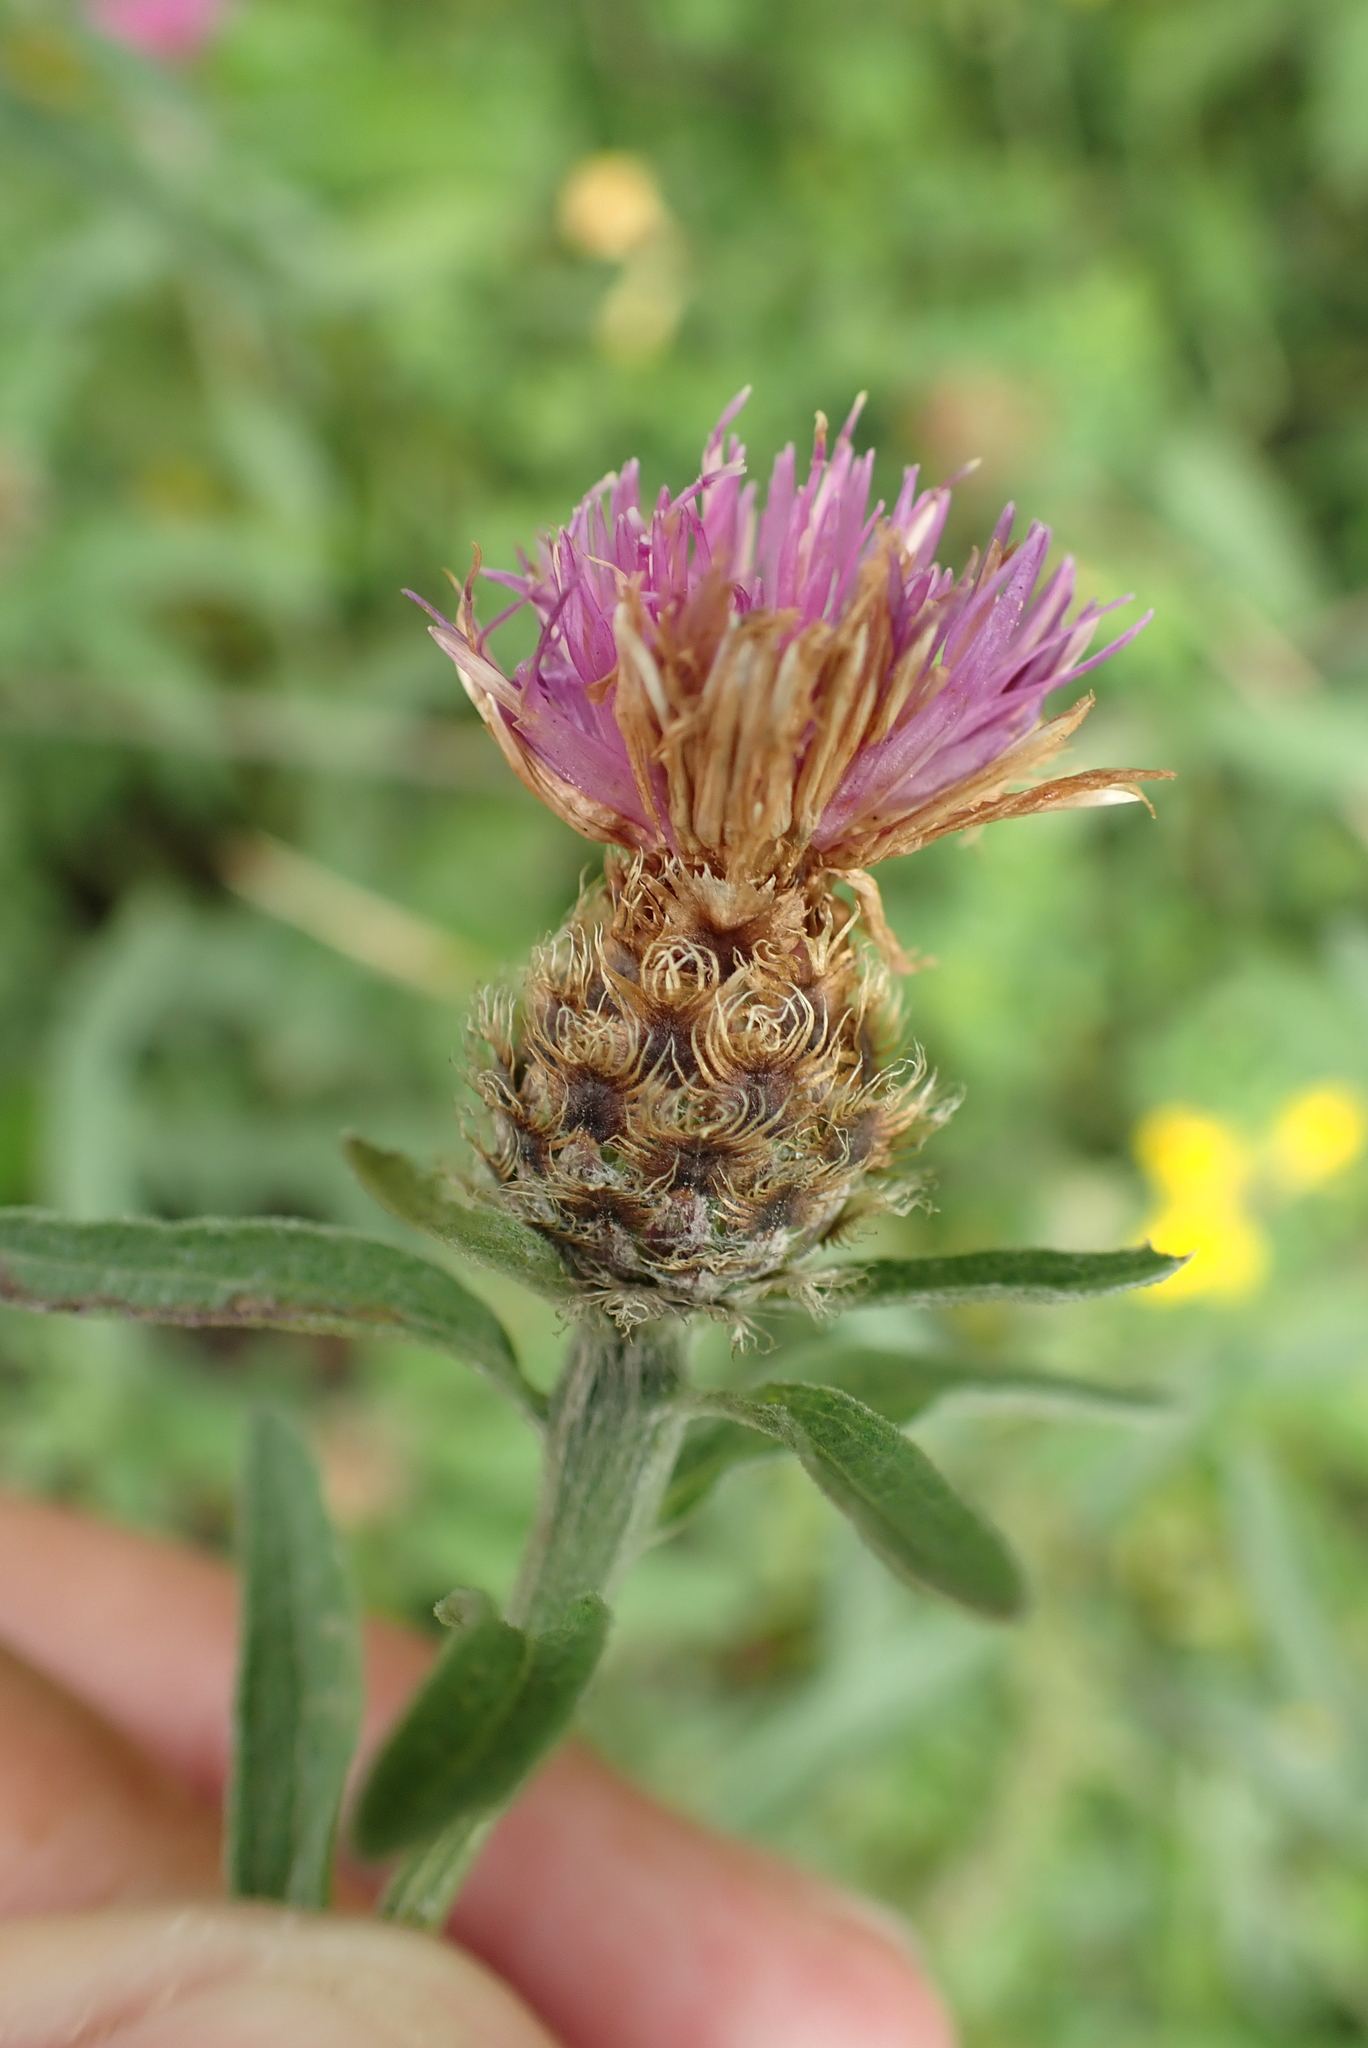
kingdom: Plantae
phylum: Tracheophyta
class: Magnoliopsida
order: Asterales
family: Asteraceae
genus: Centaurea
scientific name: Centaurea nigra
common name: Lesser knapweed
